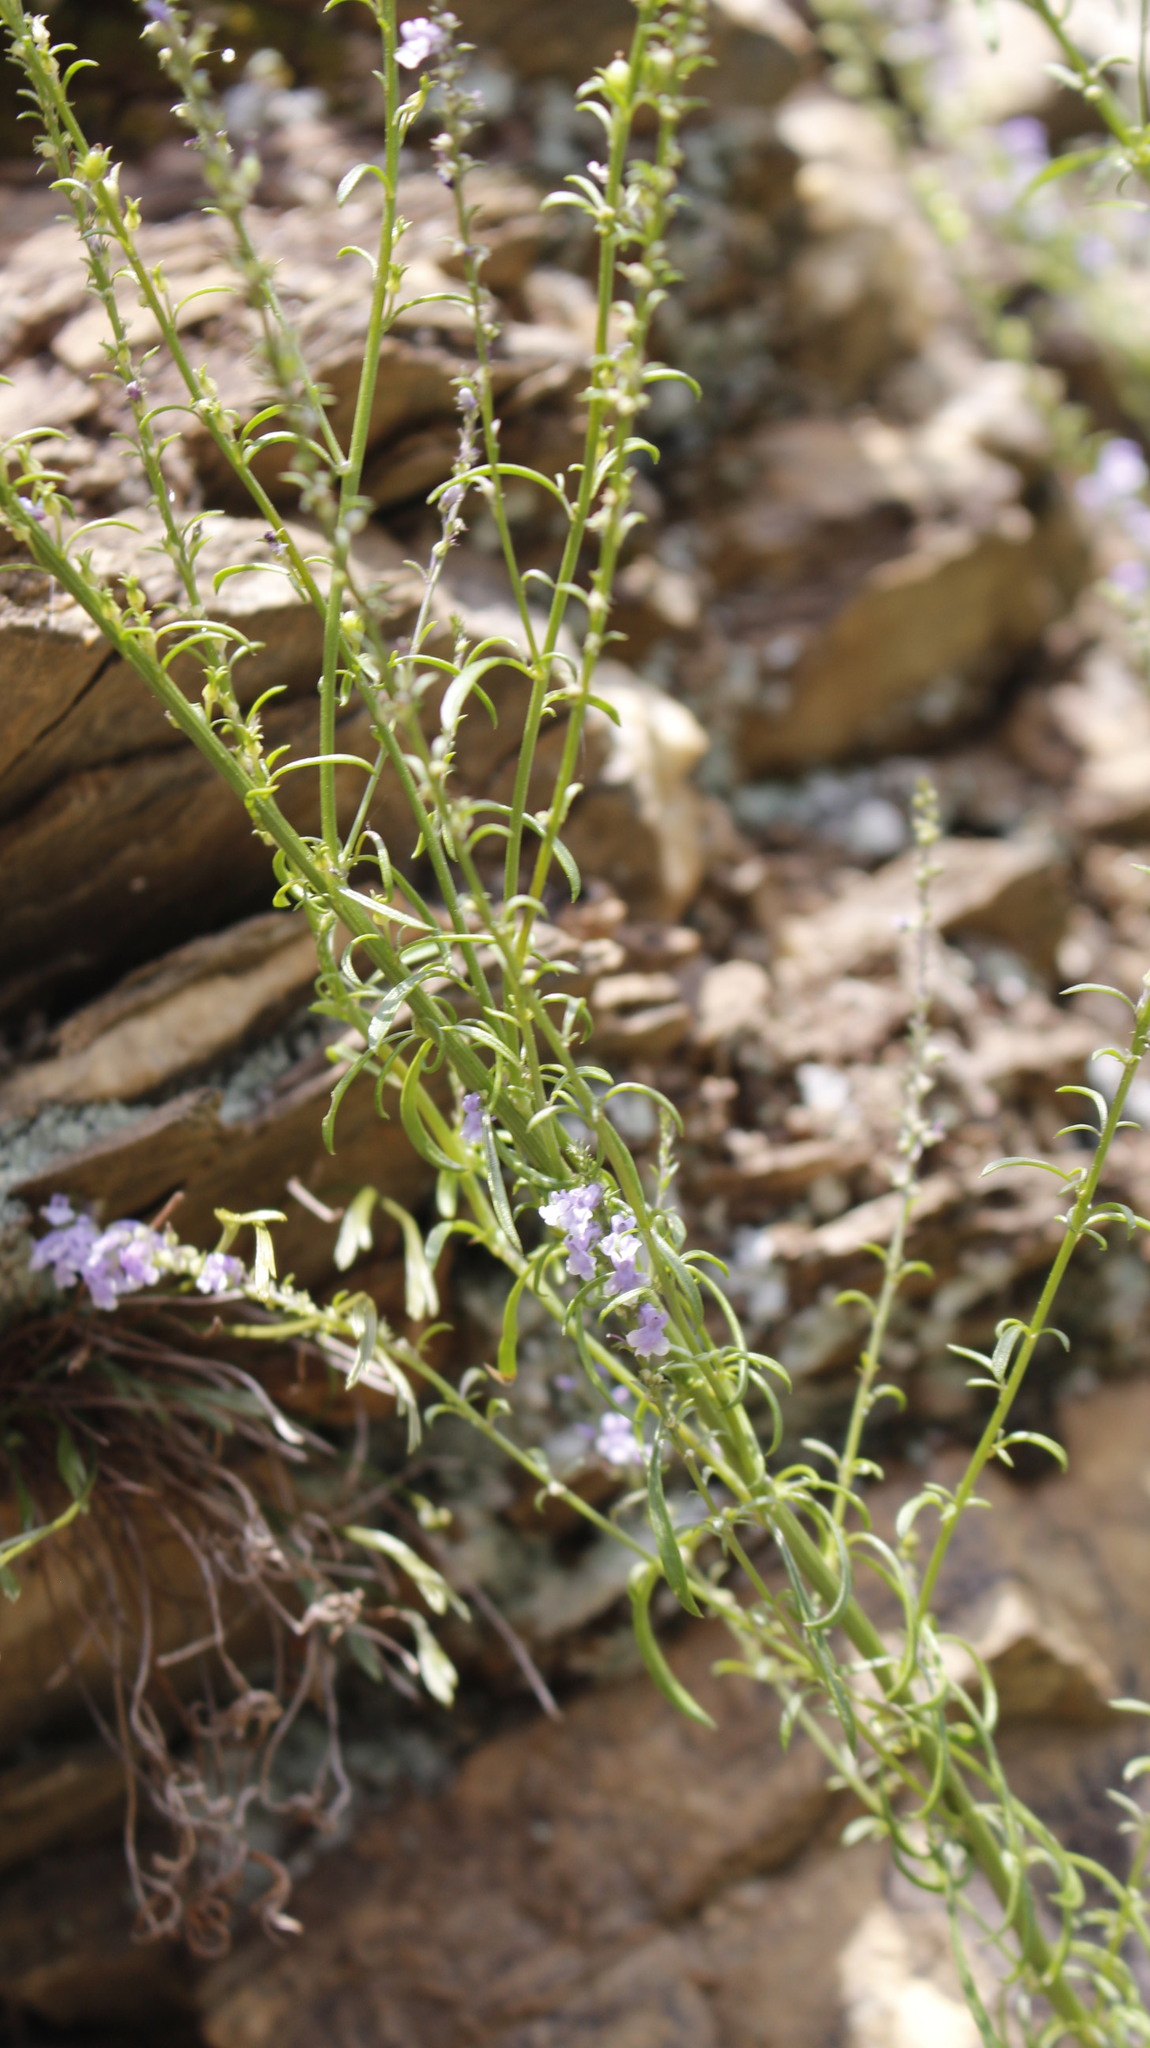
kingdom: Plantae
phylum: Tracheophyta
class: Magnoliopsida
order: Lamiales
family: Plantaginaceae
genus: Anarrhinum
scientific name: Anarrhinum bellidifolium
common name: Daisy-leaved toadflax
